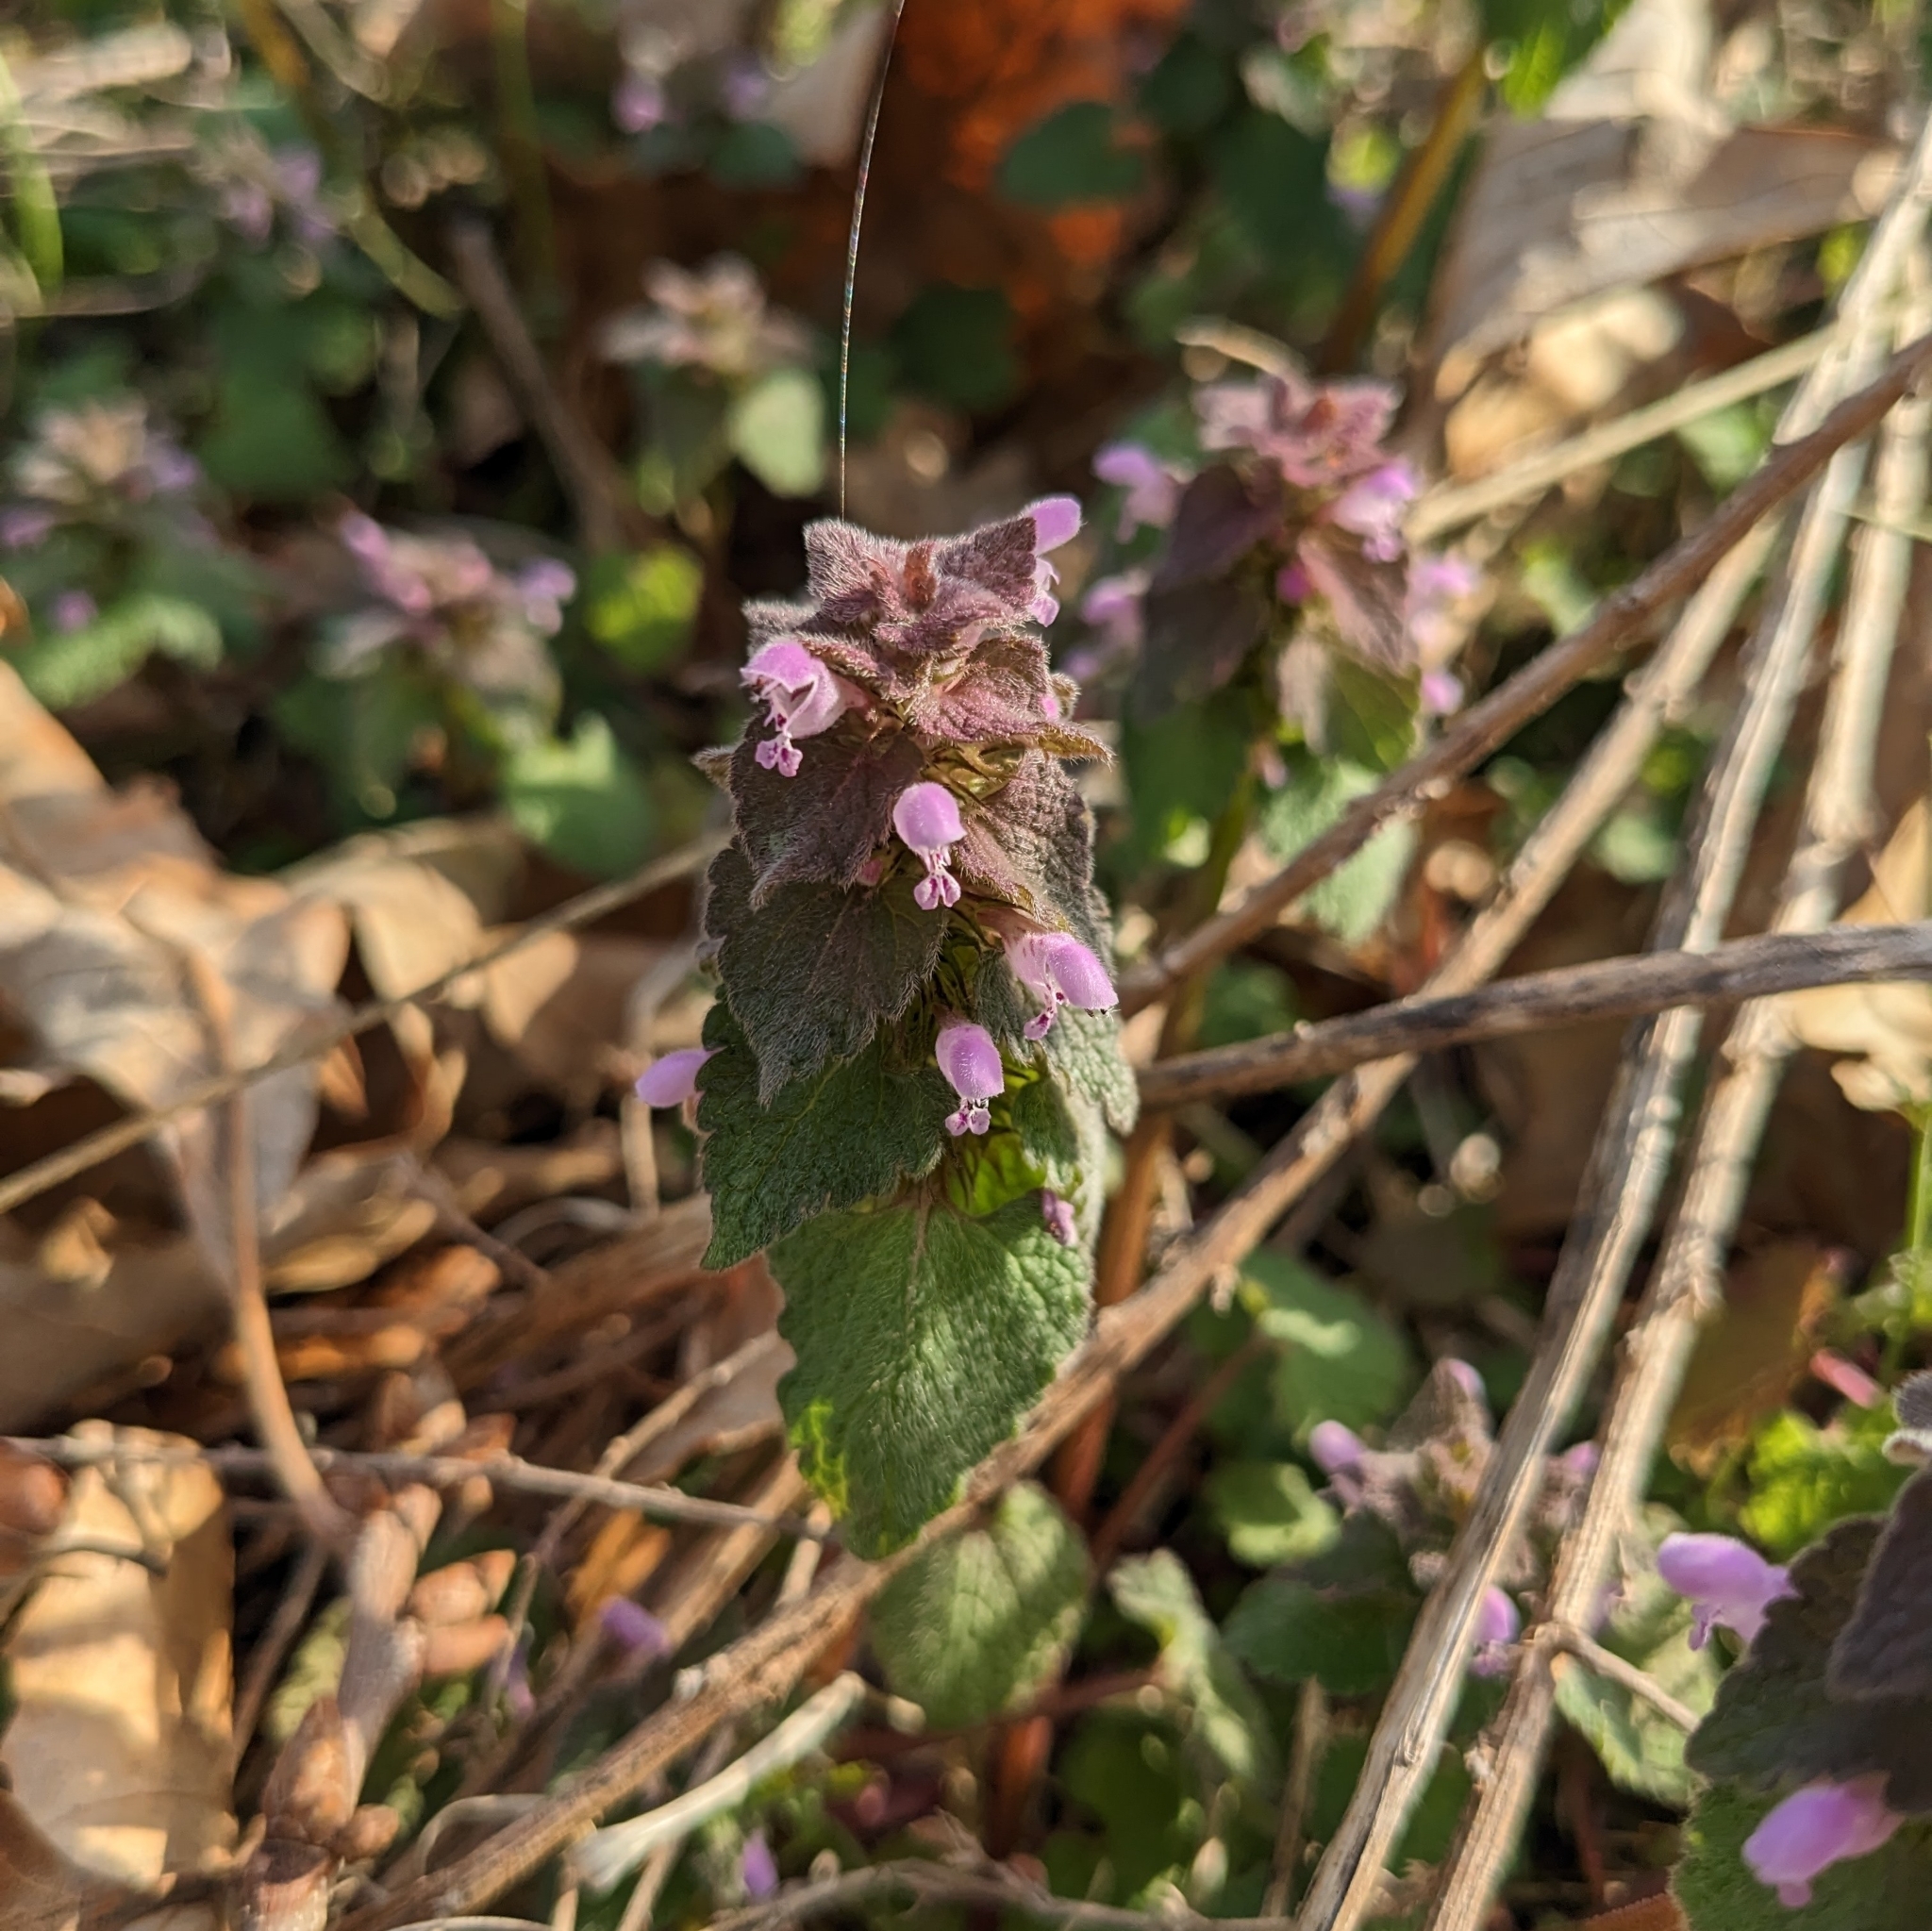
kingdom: Plantae
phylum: Tracheophyta
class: Magnoliopsida
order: Lamiales
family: Lamiaceae
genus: Lamium
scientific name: Lamium purpureum
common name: Red dead-nettle
